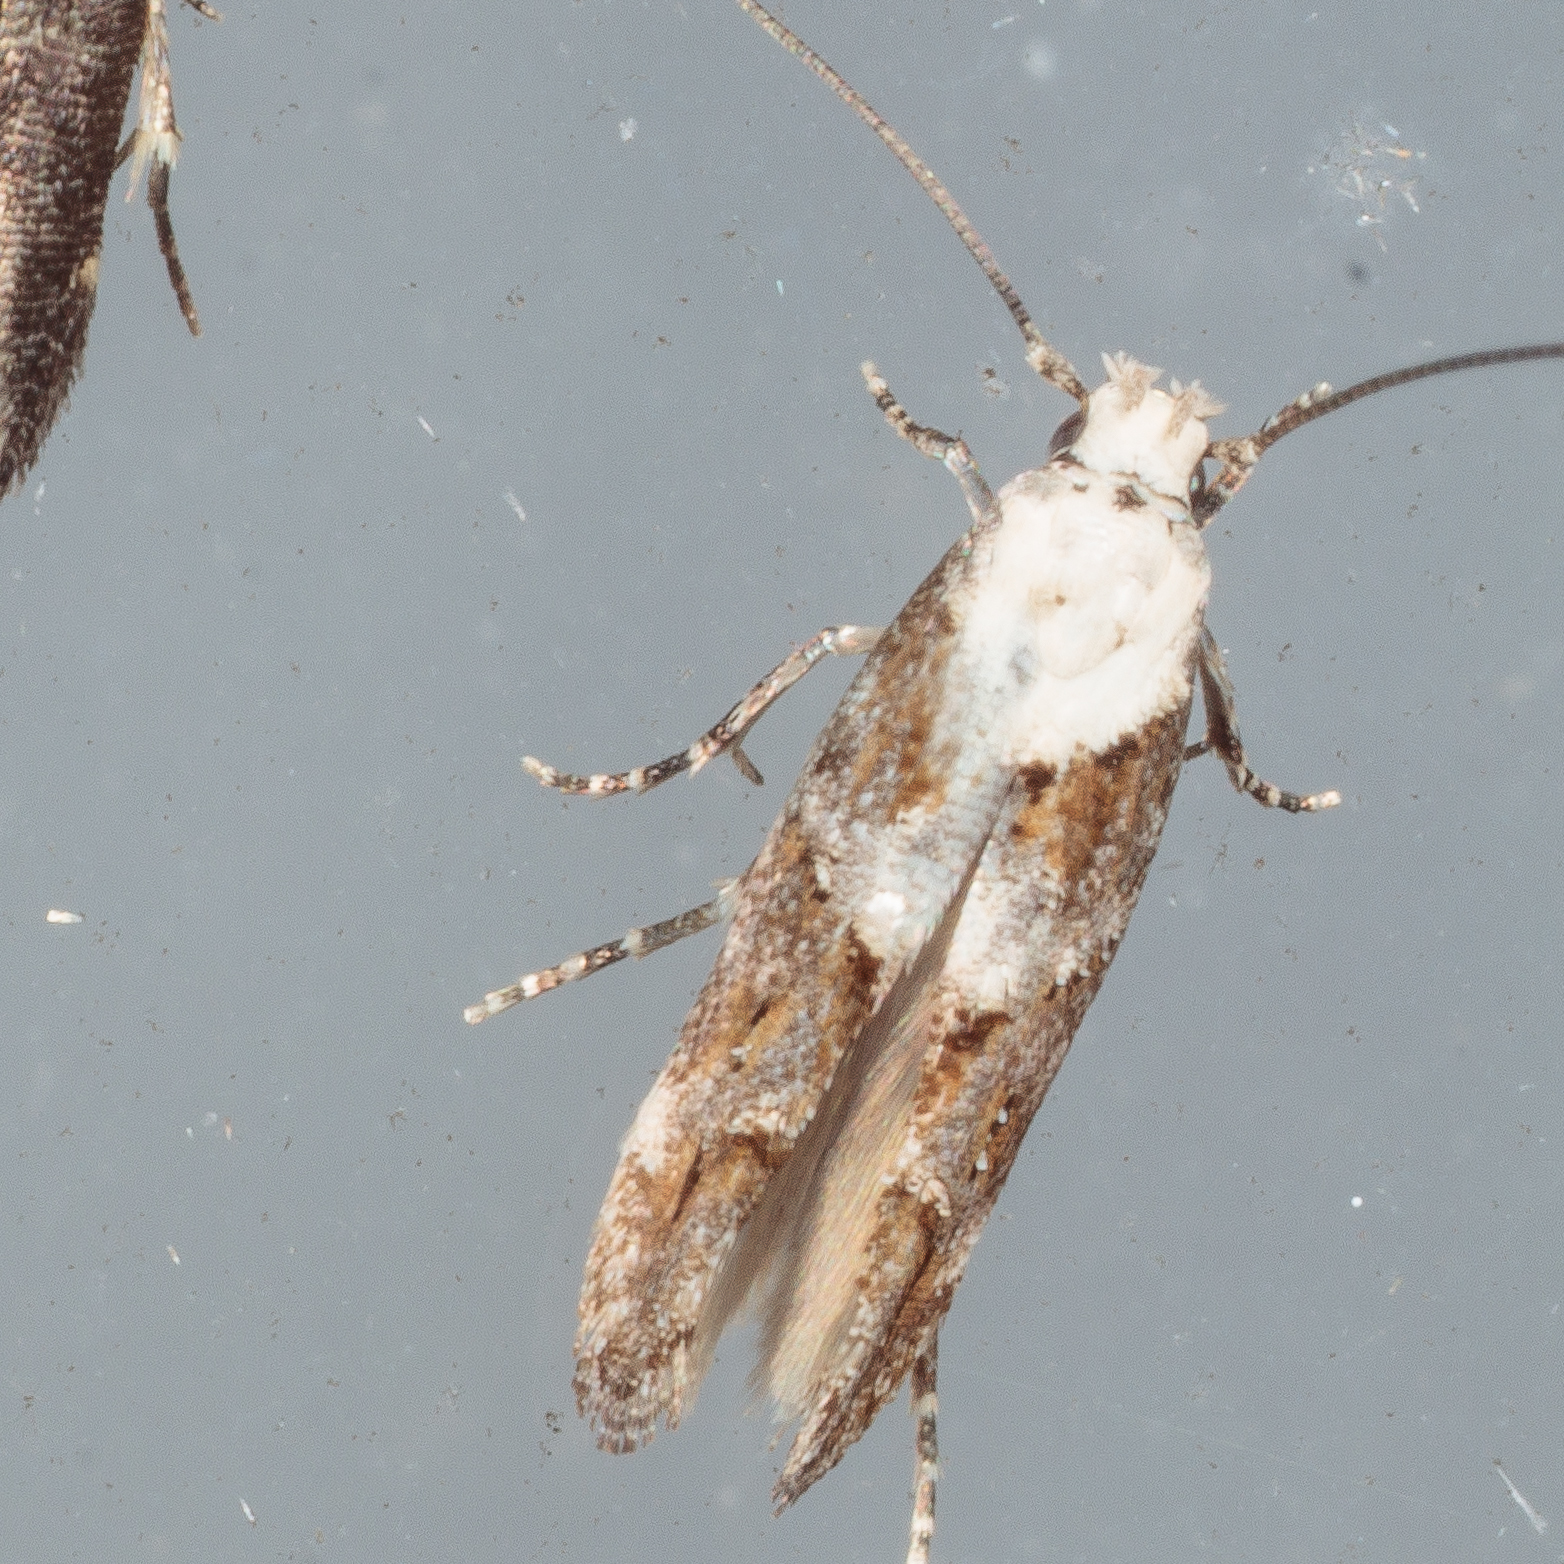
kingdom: Animalia
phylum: Arthropoda
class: Insecta
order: Lepidoptera
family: Momphidae
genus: Mompha
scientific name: Mompha albocapitella
